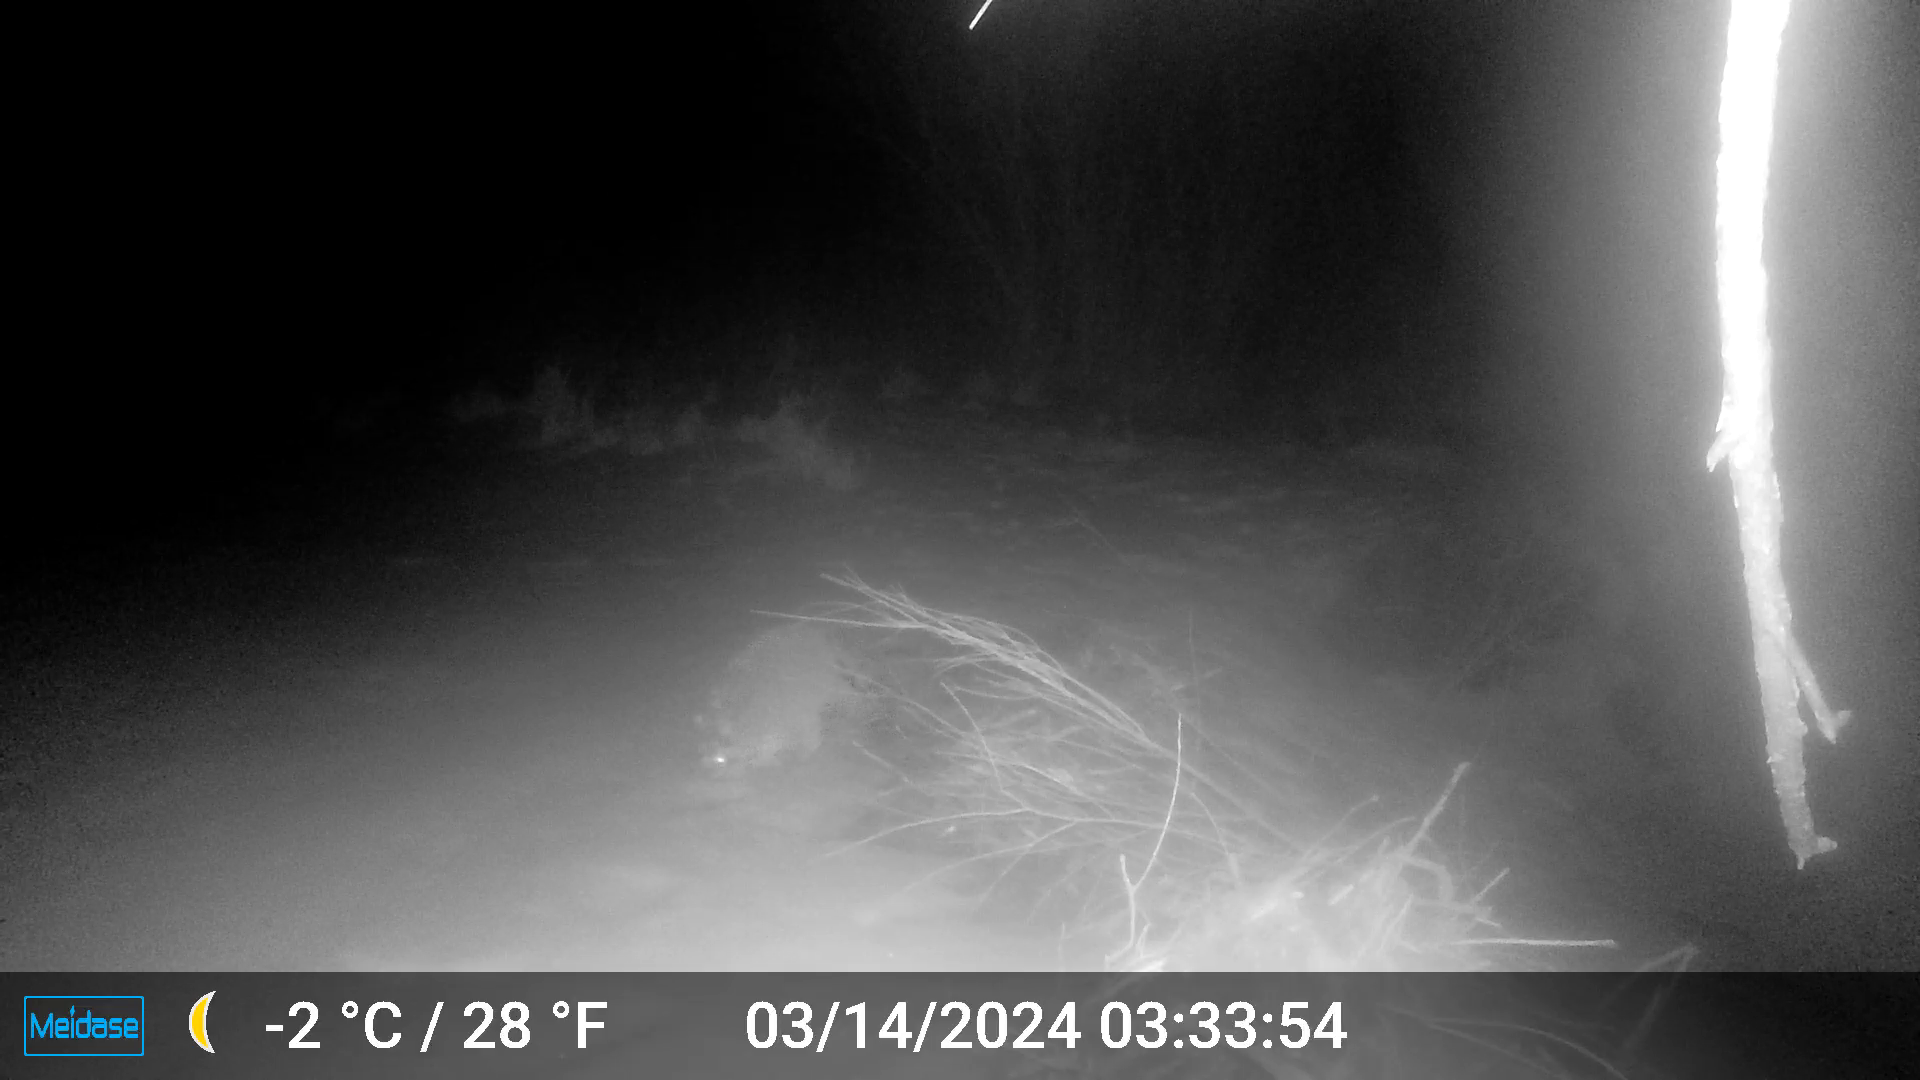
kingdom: Animalia
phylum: Chordata
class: Mammalia
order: Carnivora
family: Procyonidae
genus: Procyon
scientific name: Procyon lotor
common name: Raccoon
